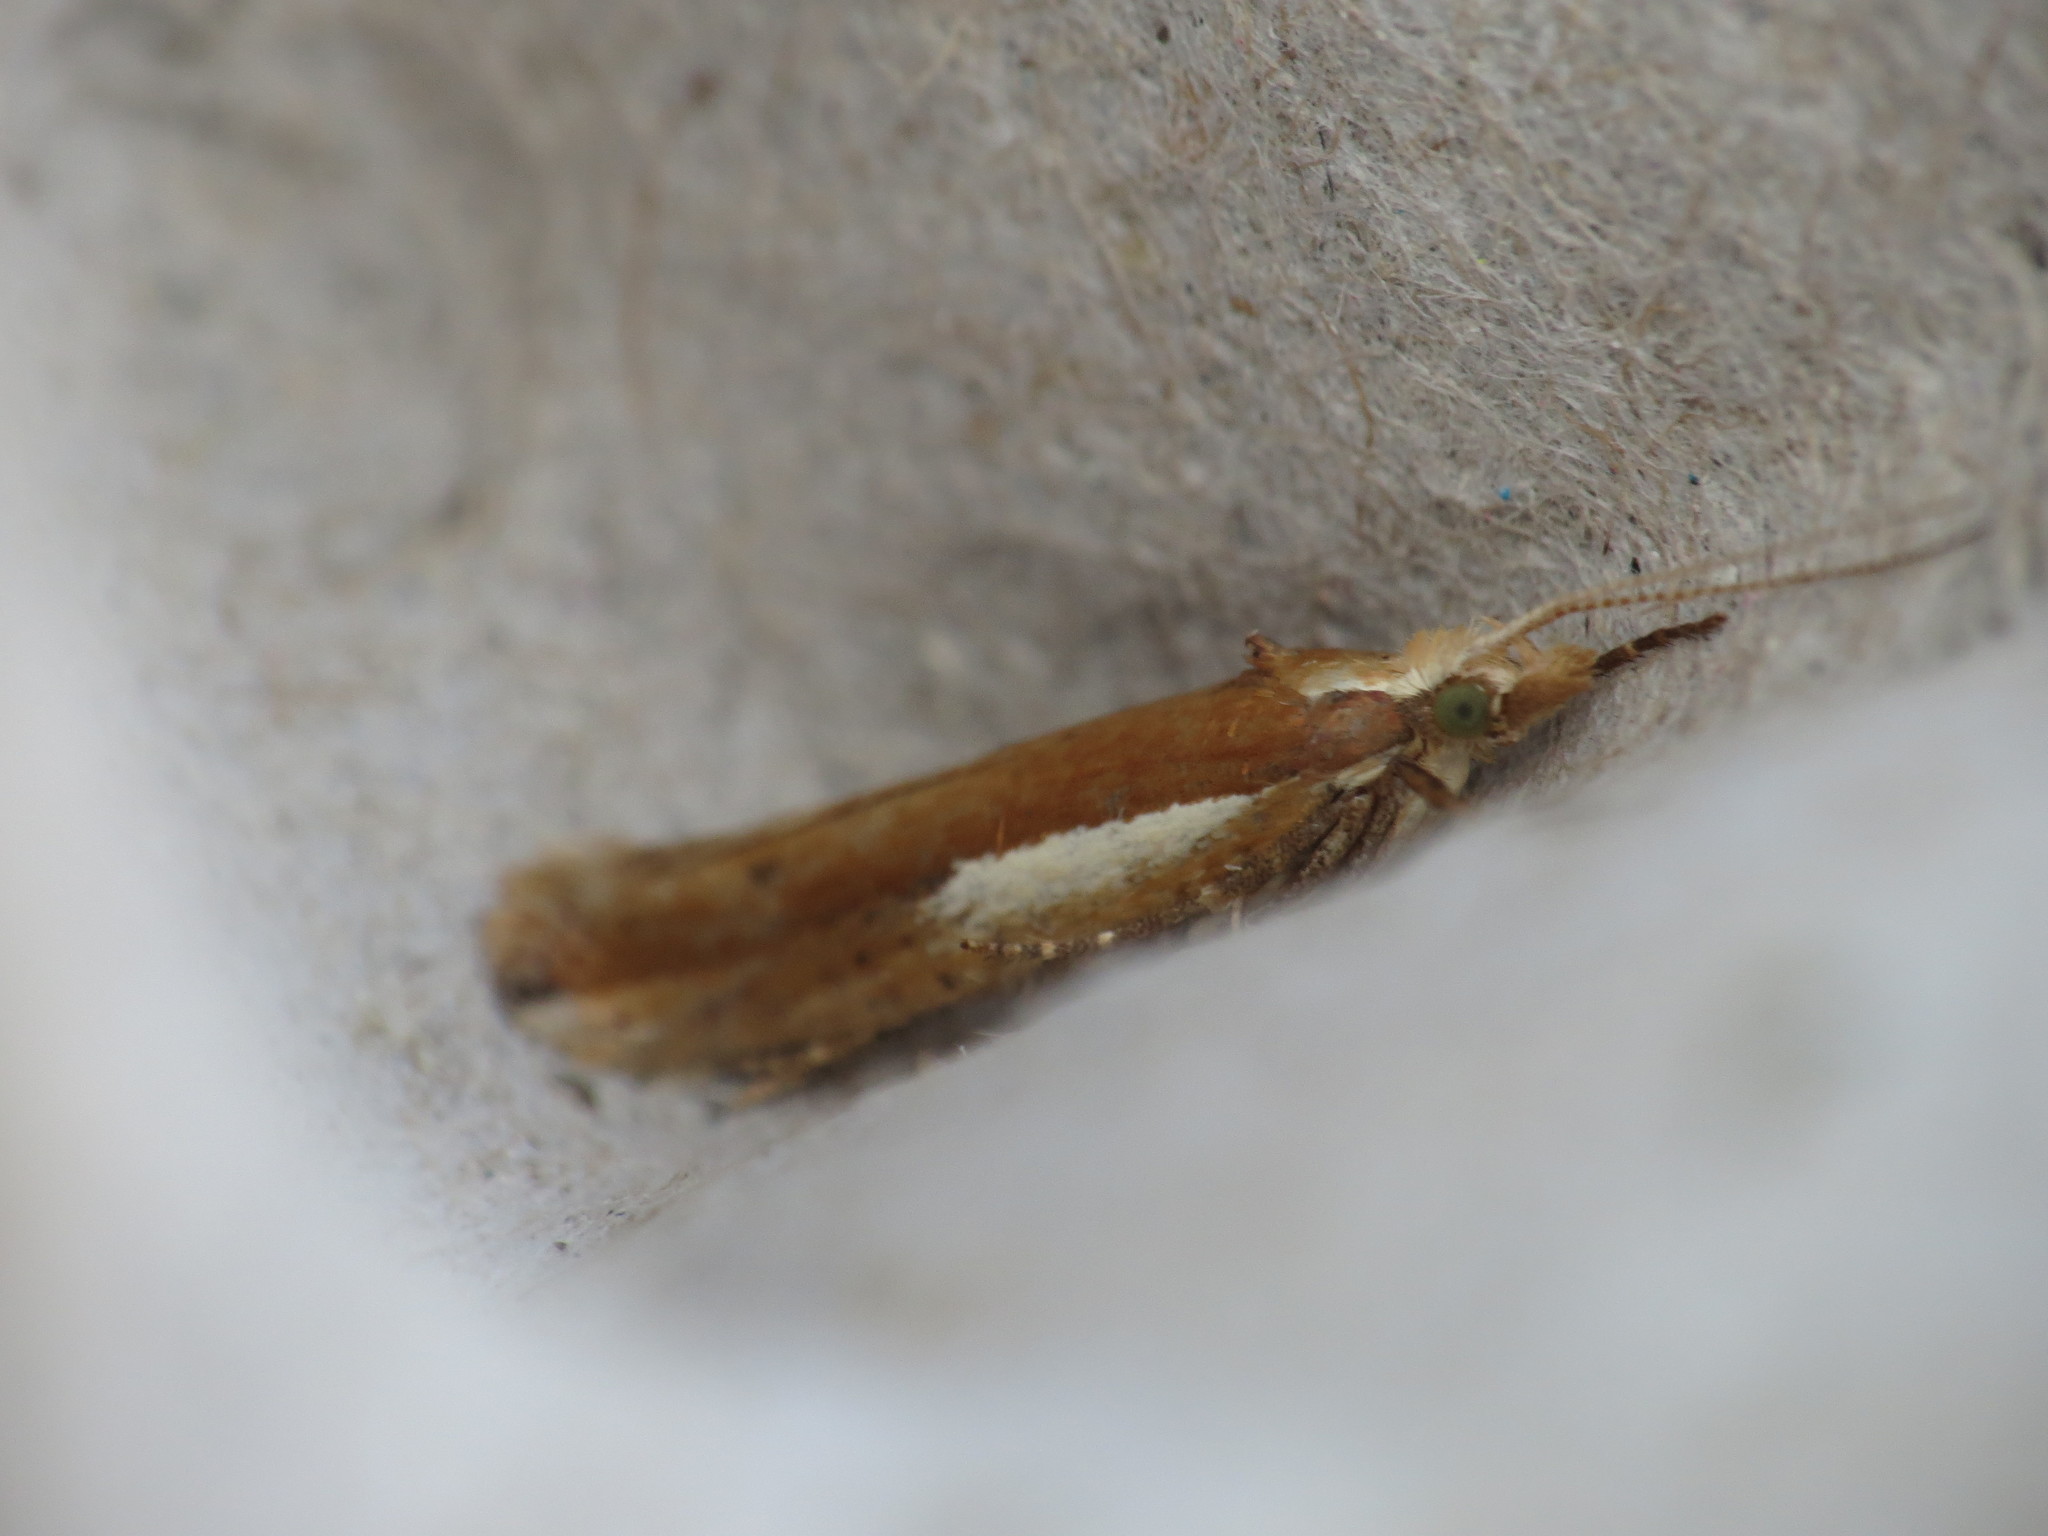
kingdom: Animalia
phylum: Arthropoda
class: Insecta
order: Lepidoptera
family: Ypsolophidae
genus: Ypsolopha
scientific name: Ypsolopha parenthesella
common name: White-shouldered smudge
